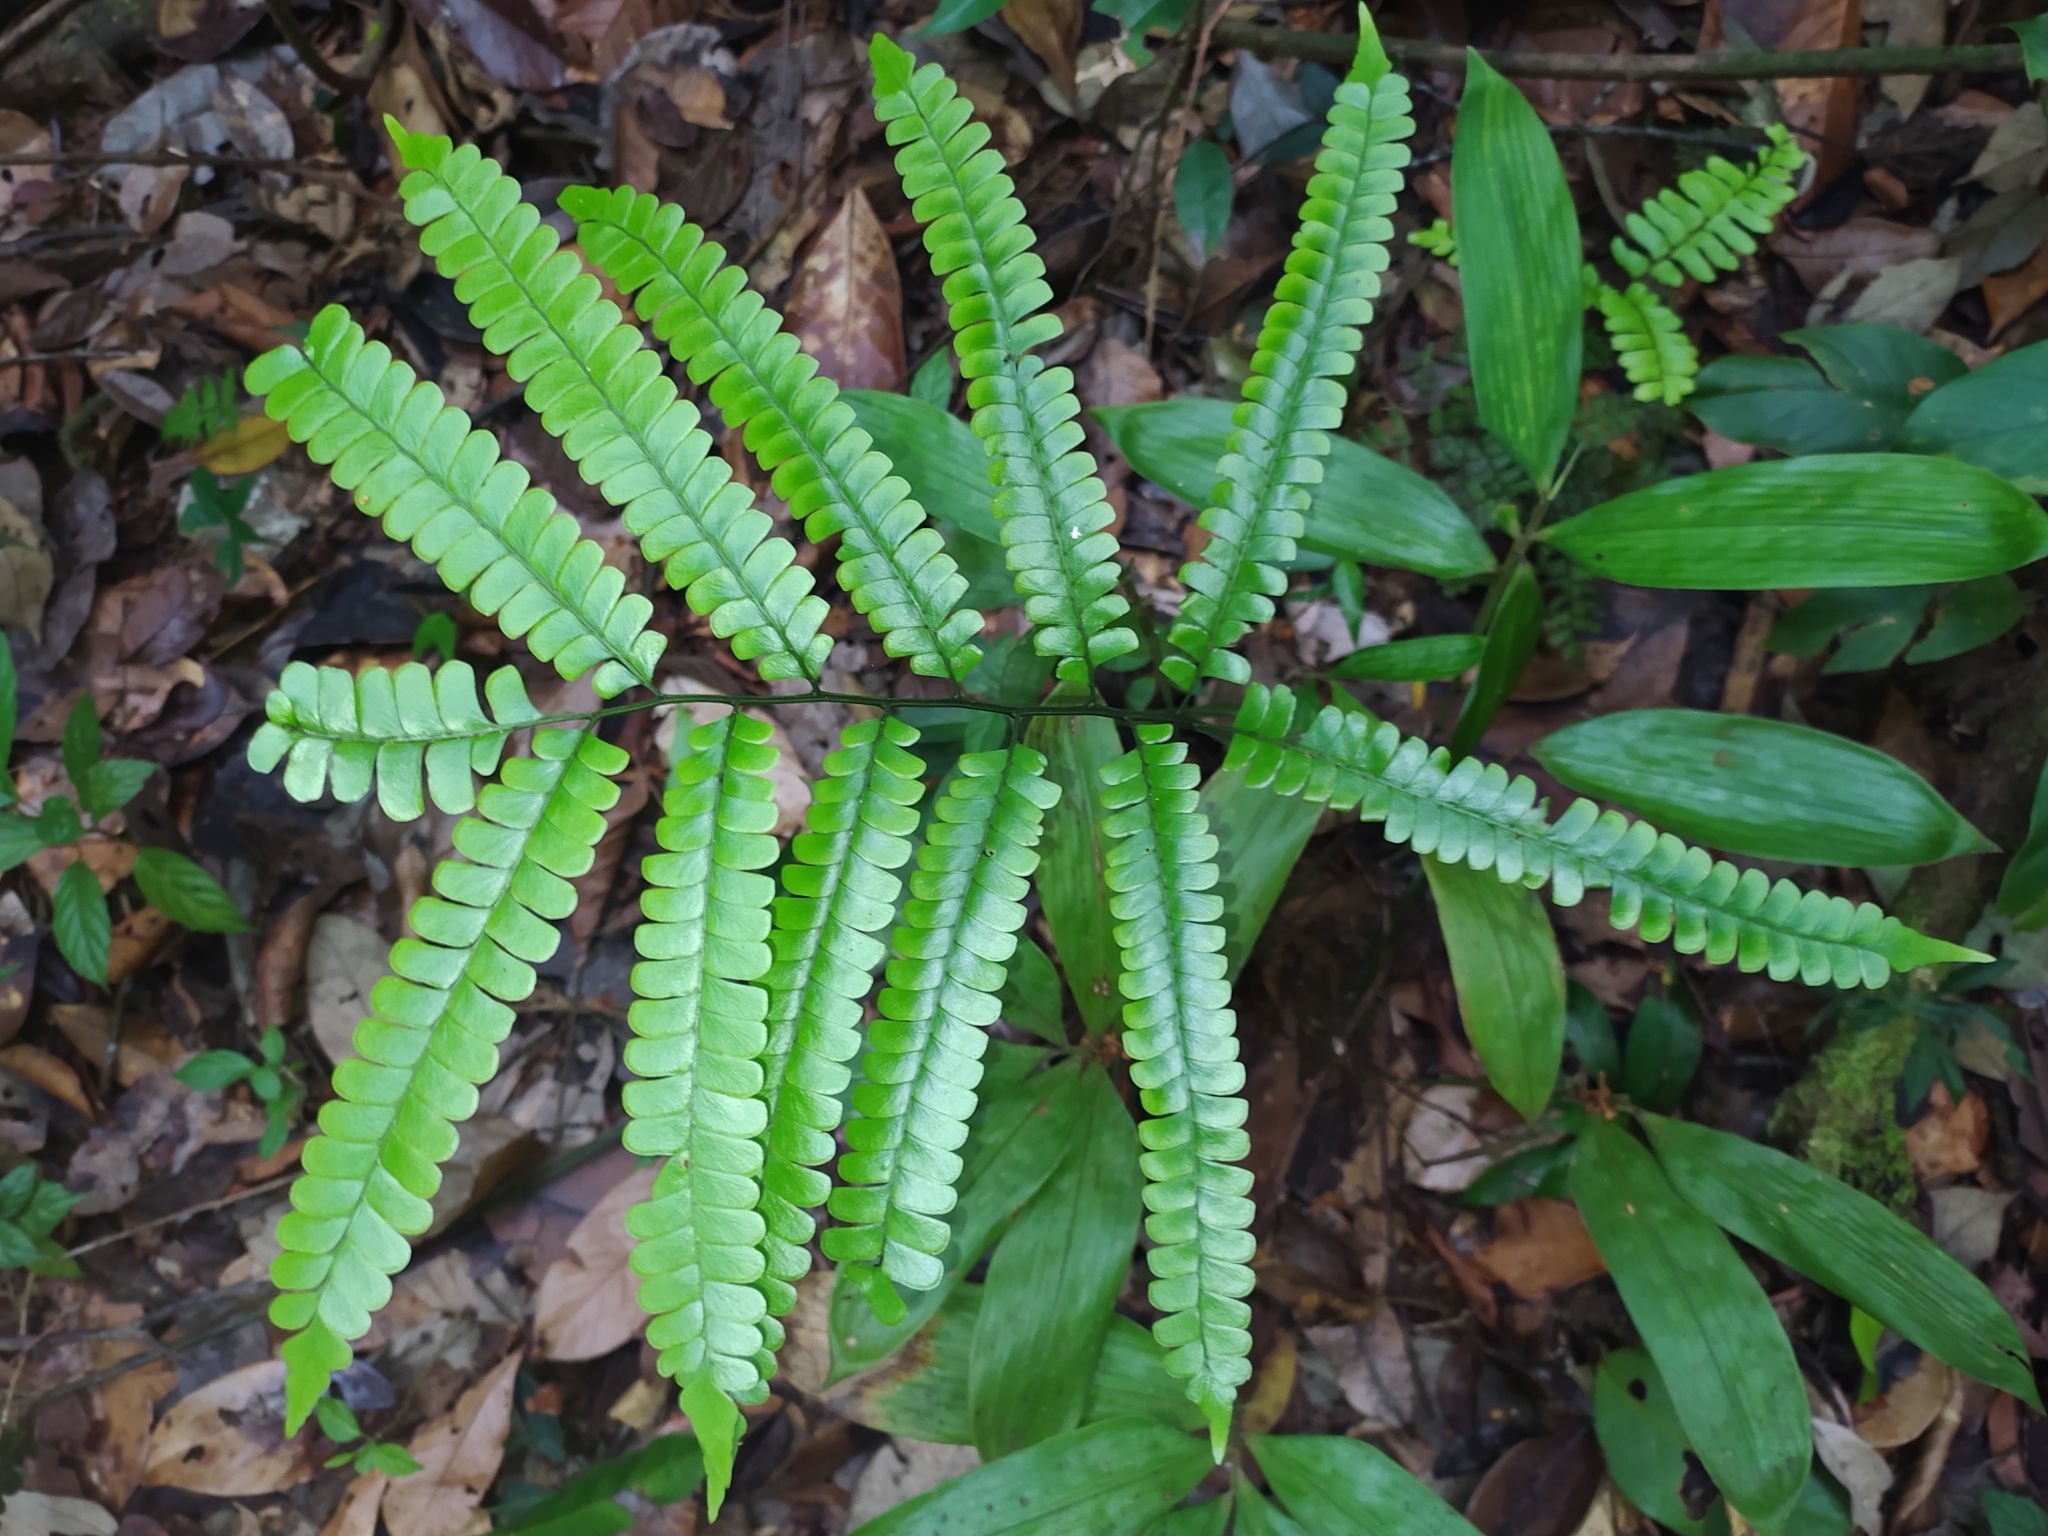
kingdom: Plantae
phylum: Tracheophyta
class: Polypodiopsida
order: Polypodiales
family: Lindsaeaceae
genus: Lindsaea
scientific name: Lindsaea quadrangularis
